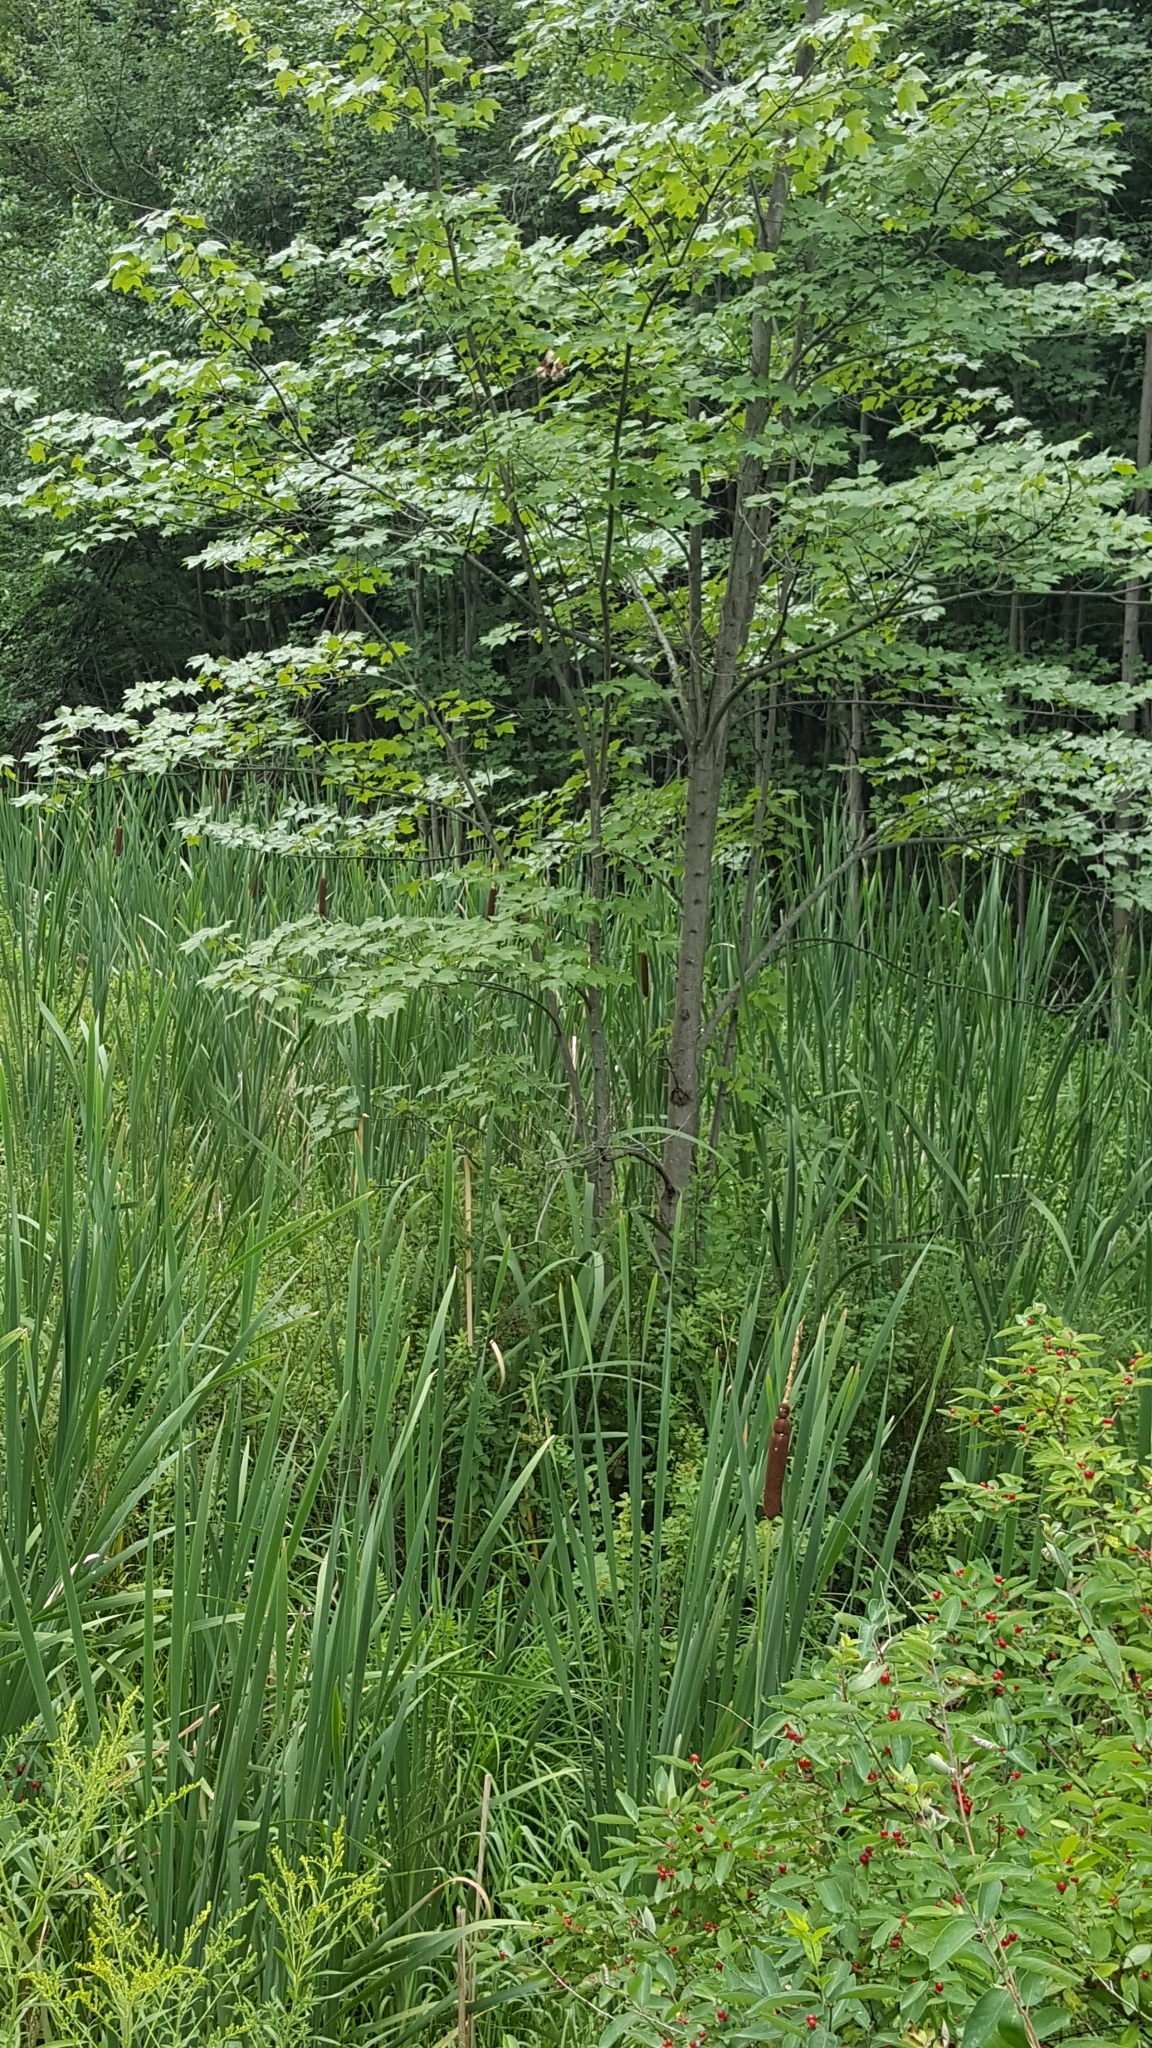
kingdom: Plantae
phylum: Tracheophyta
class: Magnoliopsida
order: Sapindales
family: Sapindaceae
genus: Acer
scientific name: Acer rubrum
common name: Red maple
